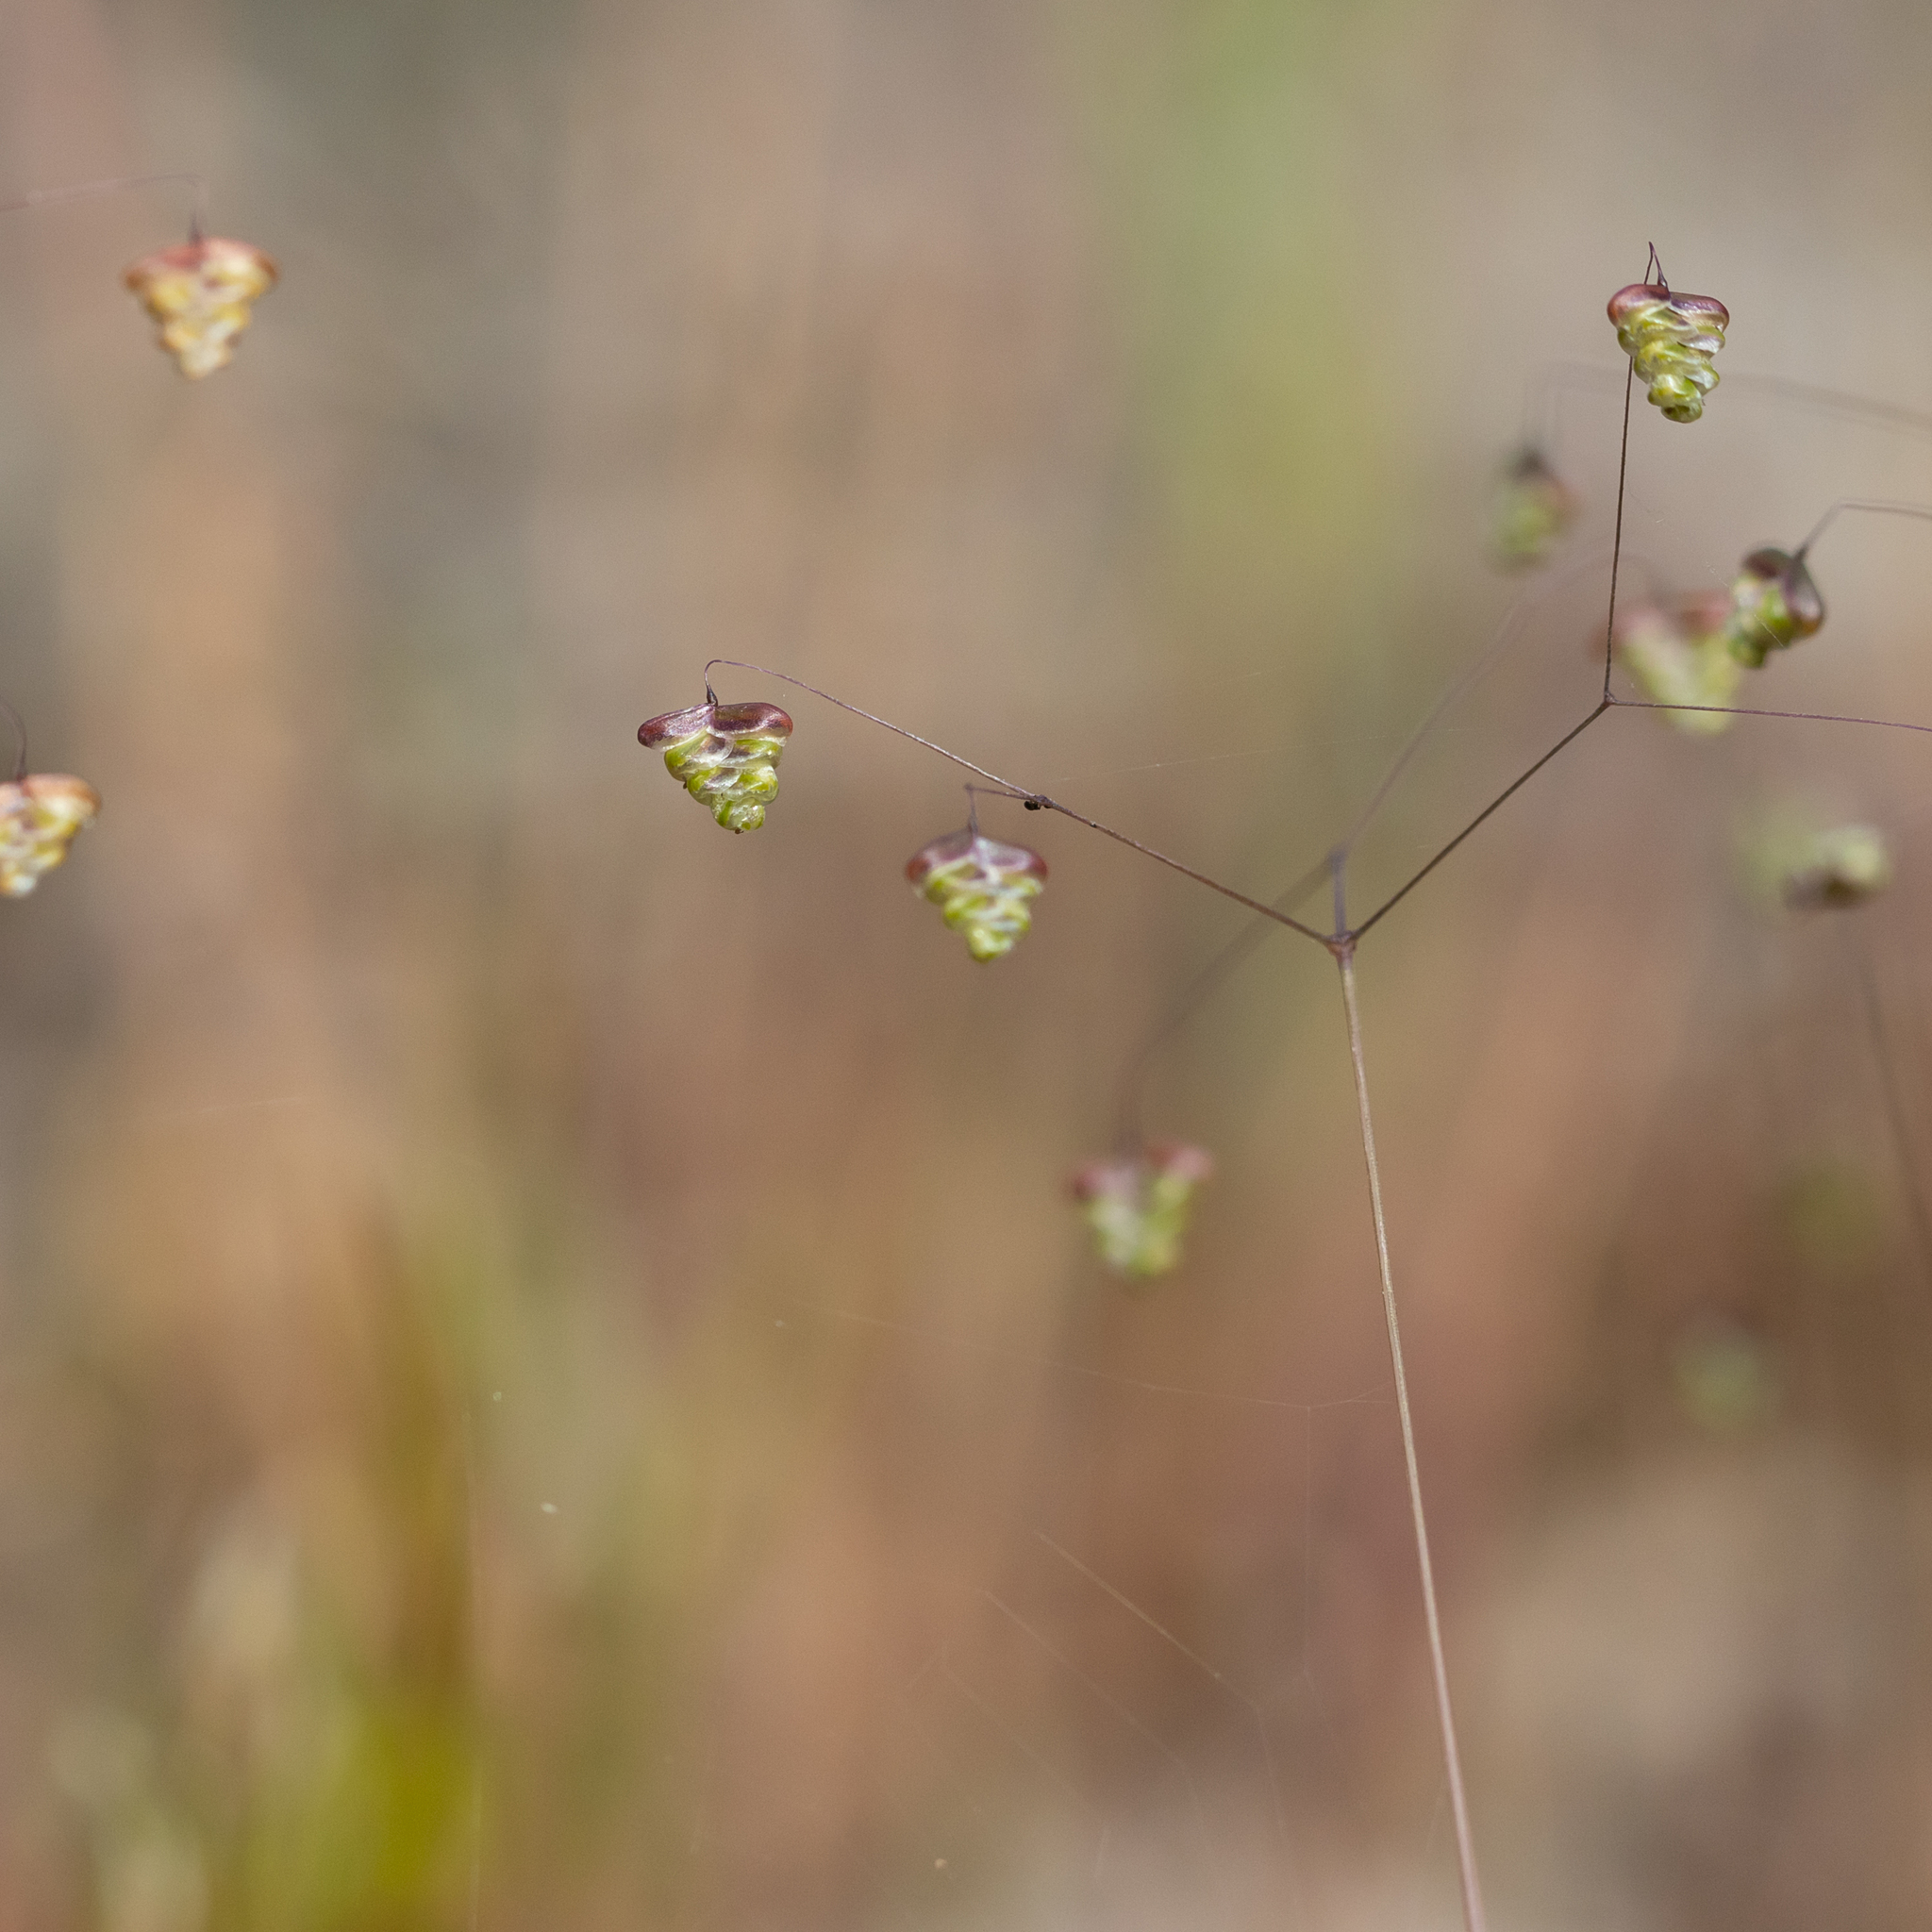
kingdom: Plantae
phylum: Tracheophyta
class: Liliopsida
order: Poales
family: Poaceae
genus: Briza
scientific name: Briza minor
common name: Lesser quaking-grass
